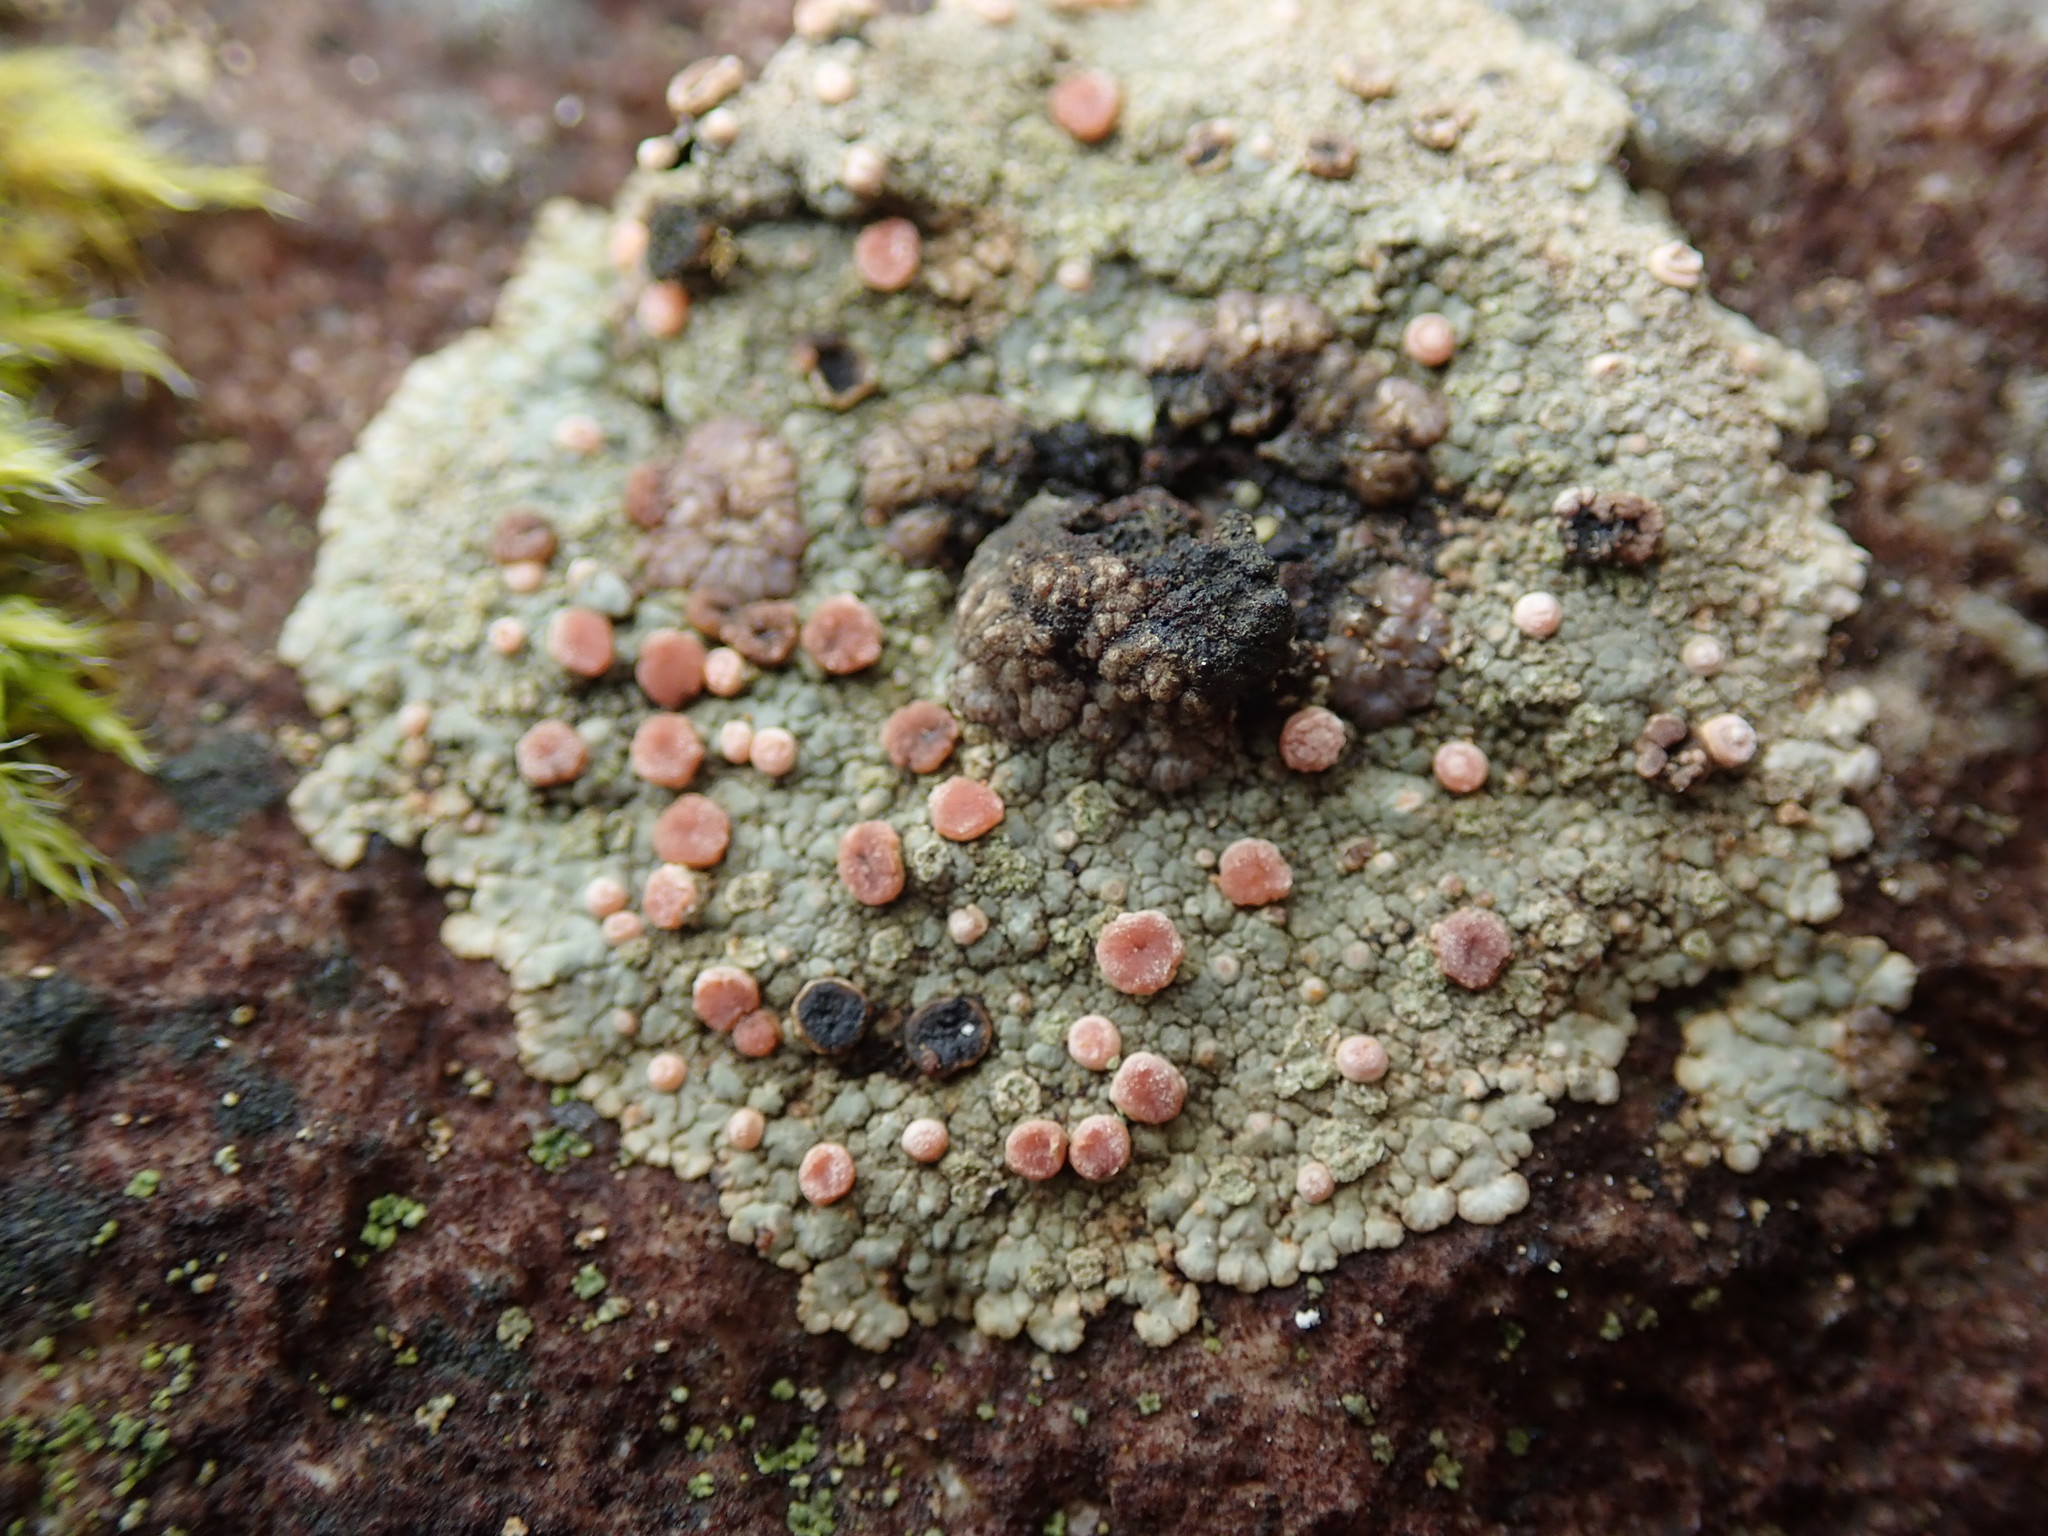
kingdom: Fungi
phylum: Ascomycota
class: Lecanoromycetes
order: Baeomycetales
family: Trapeliaceae
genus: Placopsis
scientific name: Placopsis gelida
